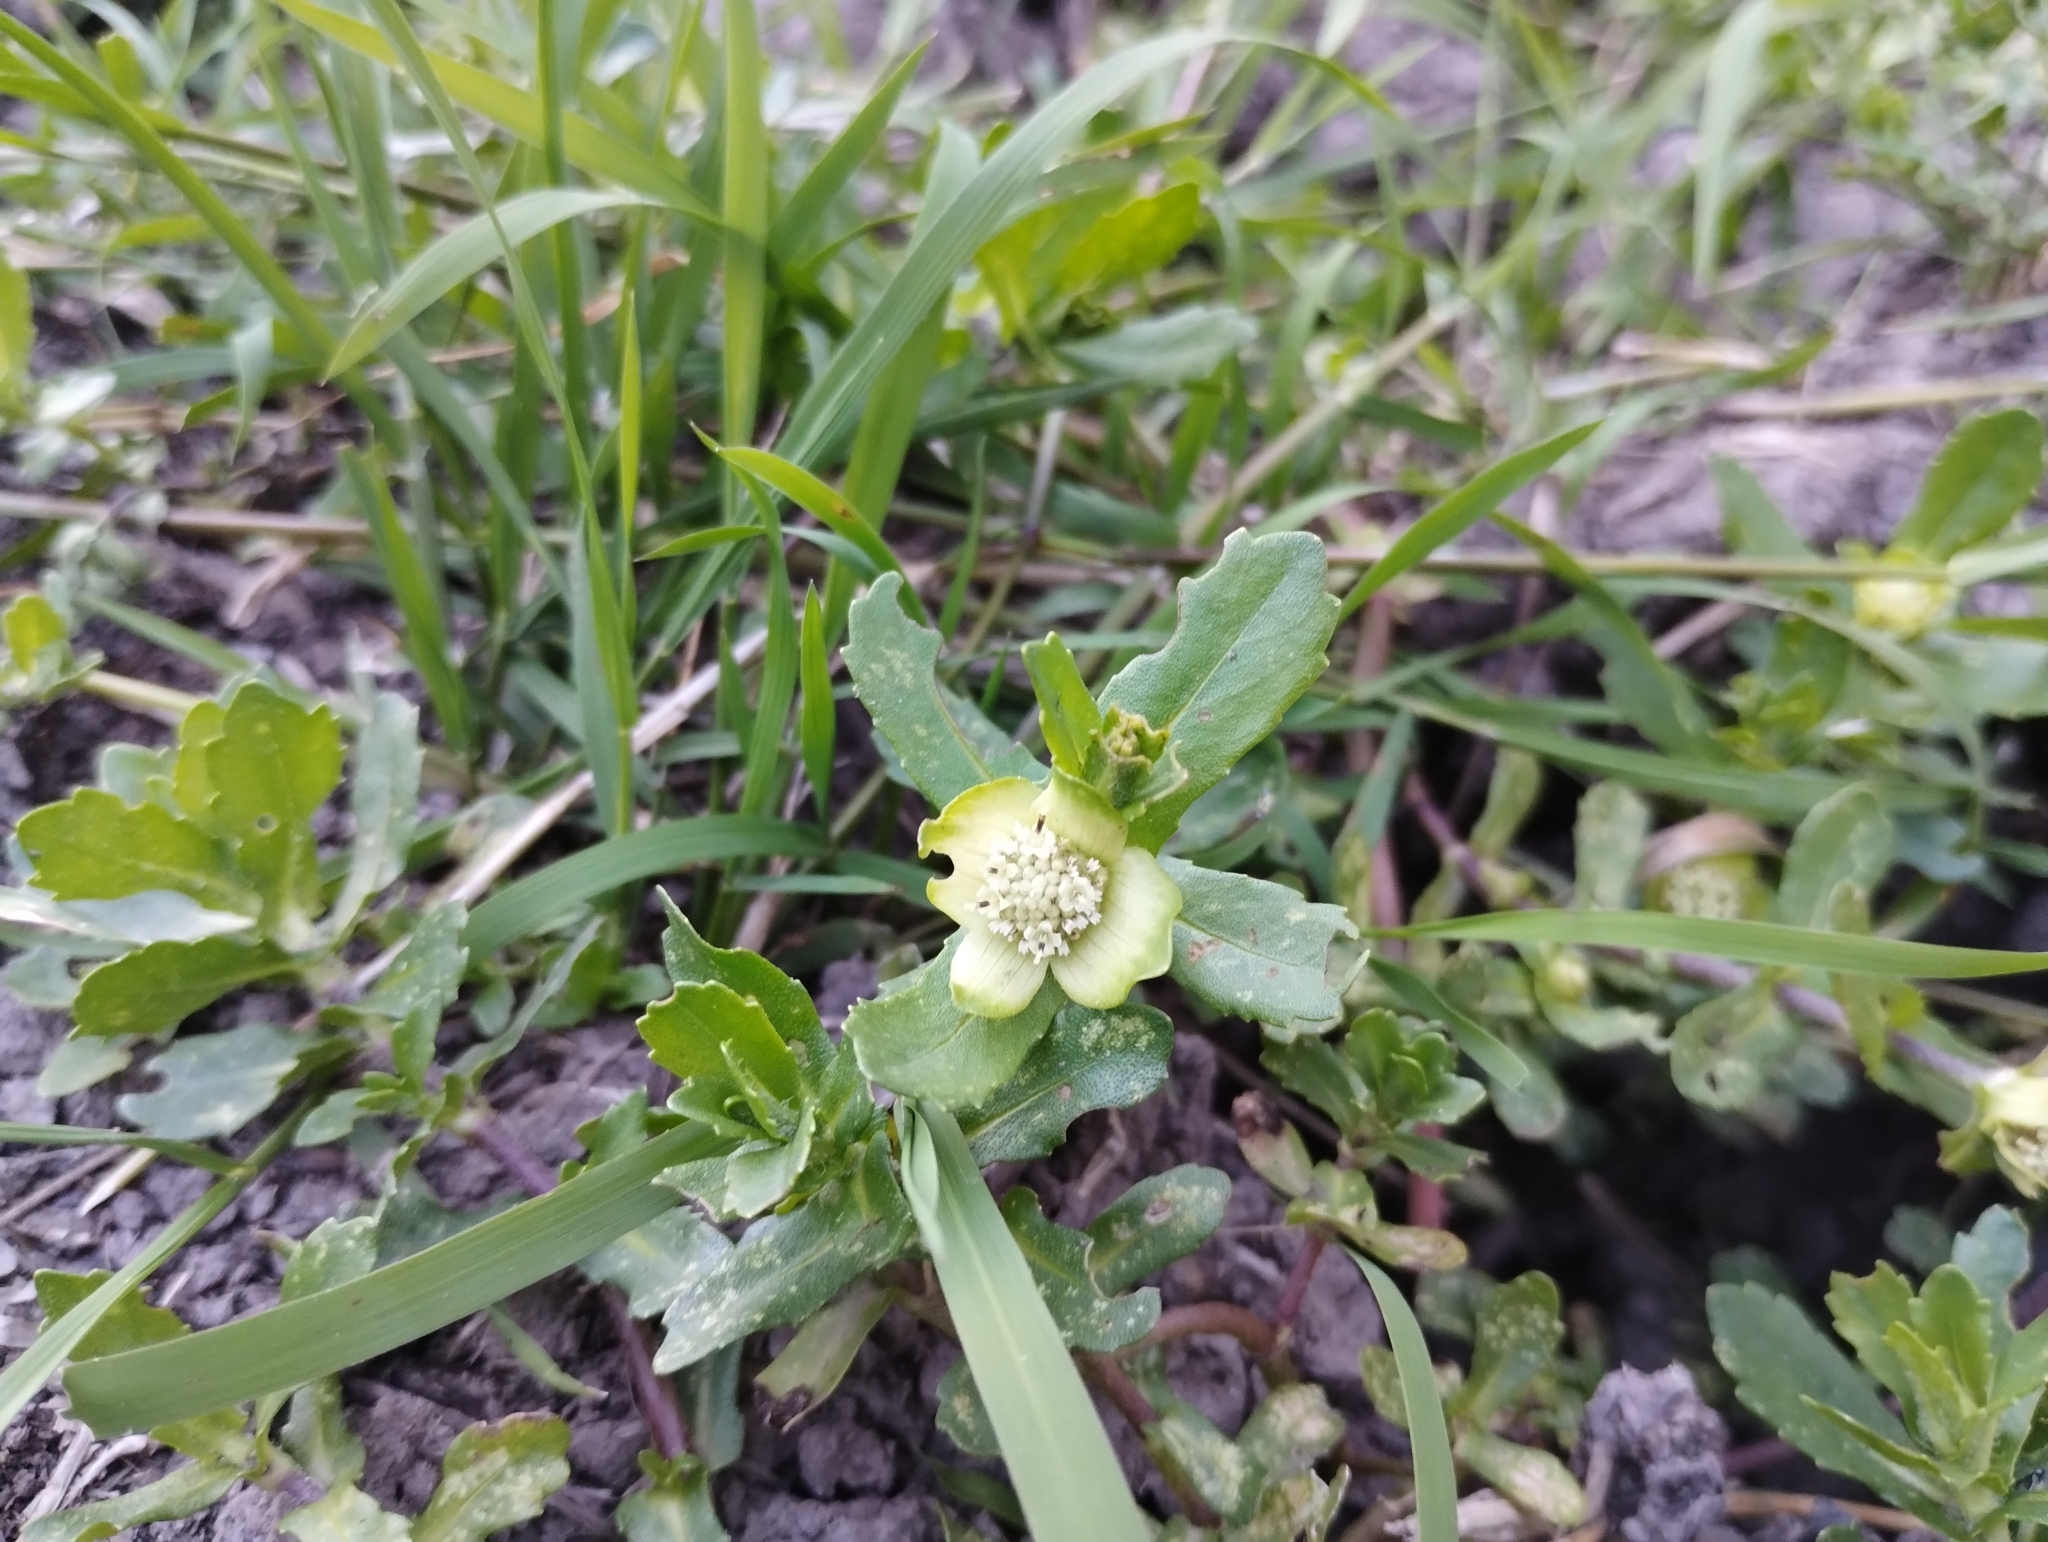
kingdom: Plantae
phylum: Tracheophyta
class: Magnoliopsida
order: Asterales
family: Asteraceae
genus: Enydra
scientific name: Enydra fluctuans
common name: Buffalo spinach
